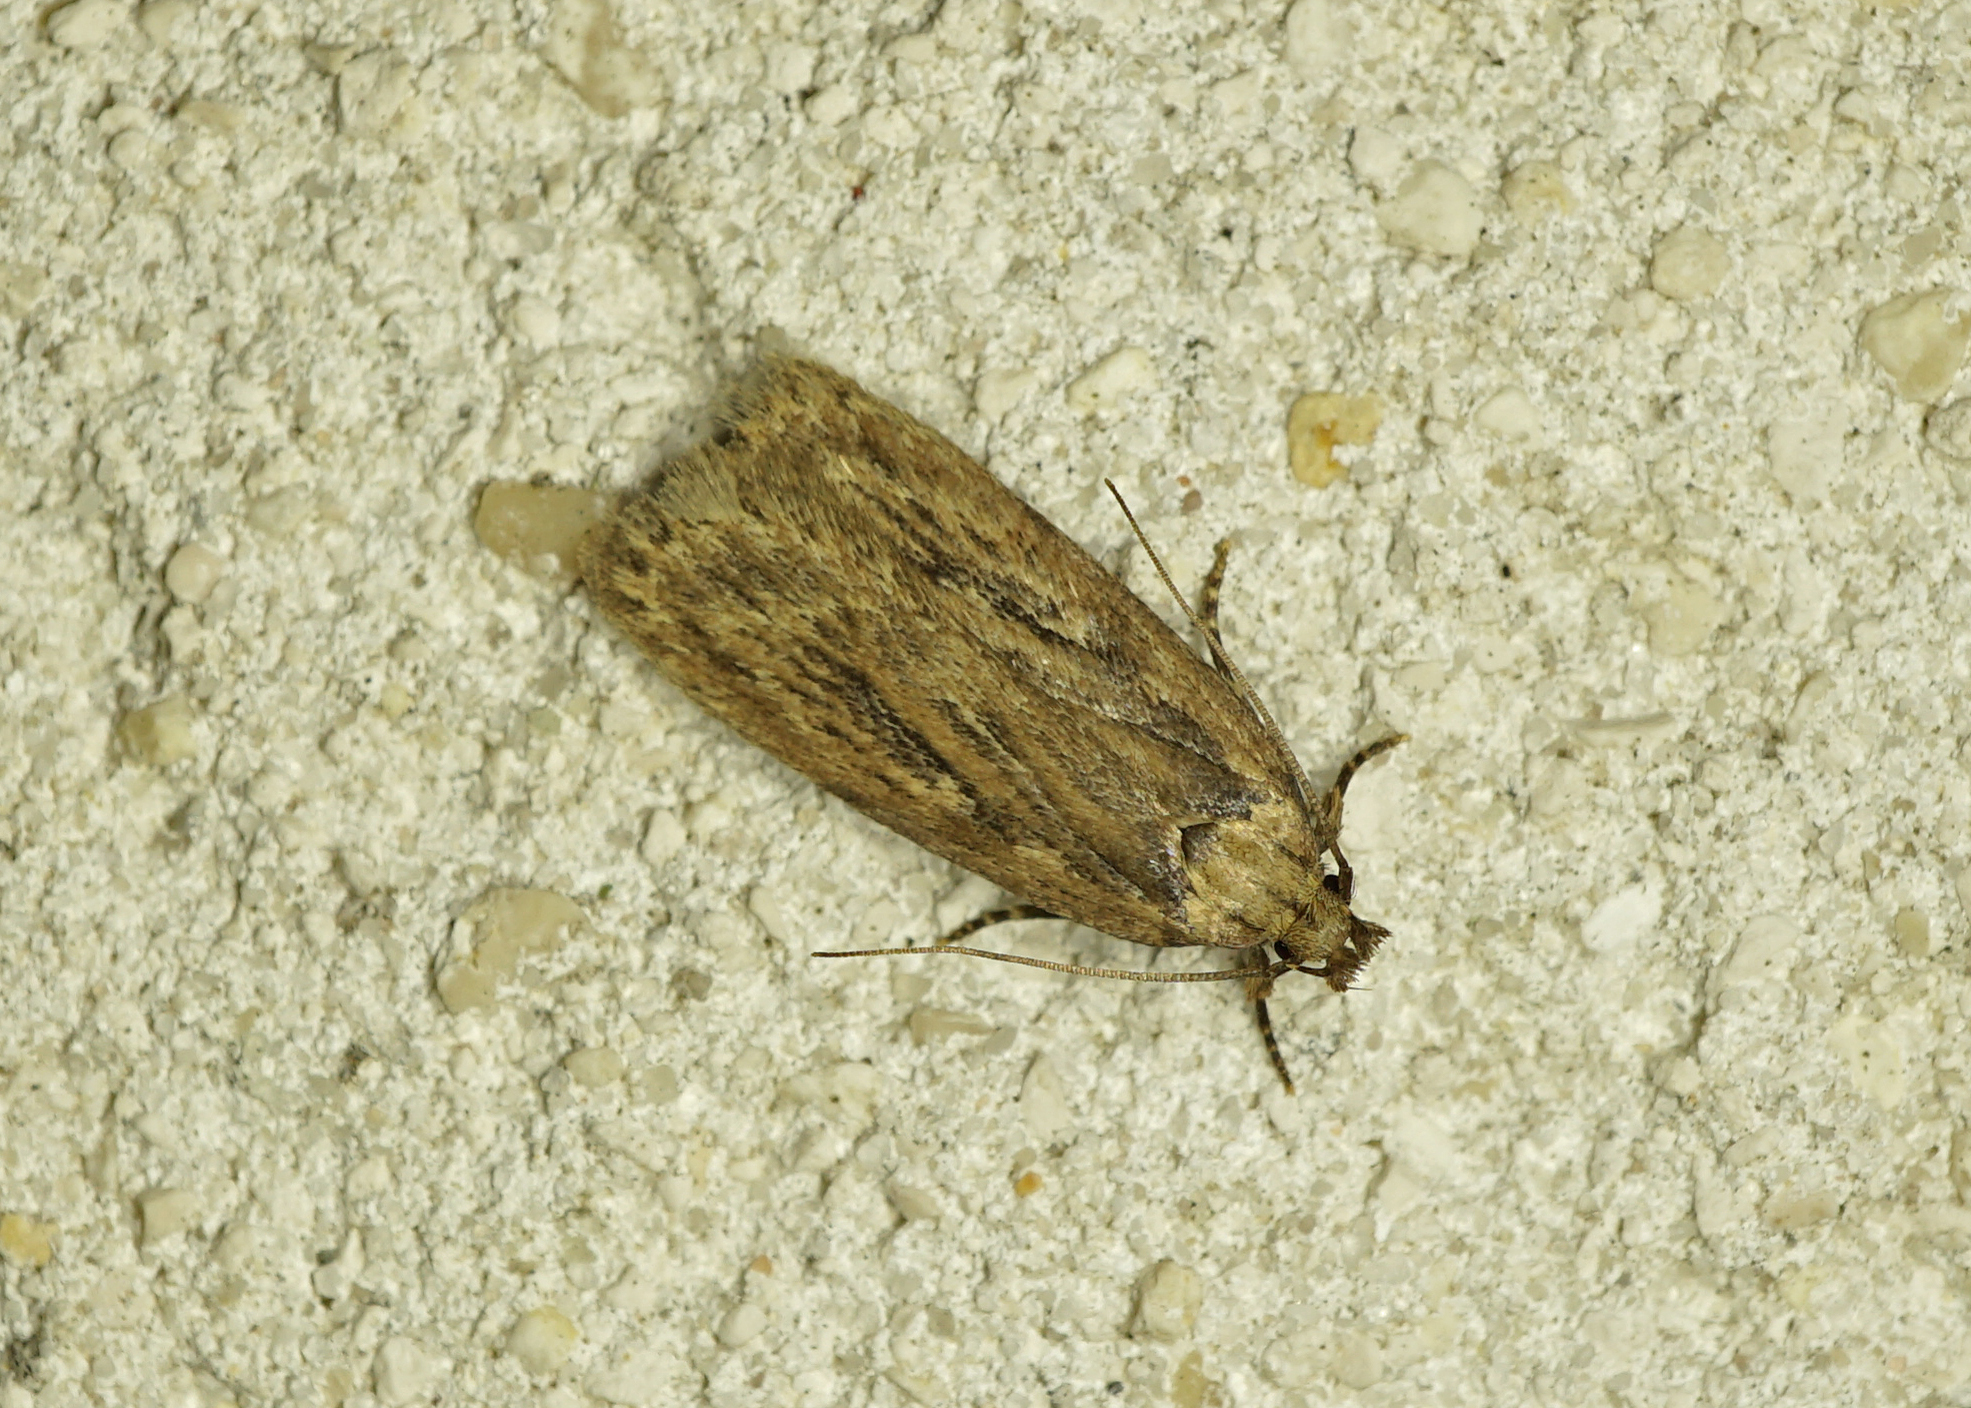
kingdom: Animalia
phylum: Arthropoda
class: Insecta
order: Lepidoptera
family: Depressariidae
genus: Depressaria
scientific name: Depressaria radiella
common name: Parsnip moth
